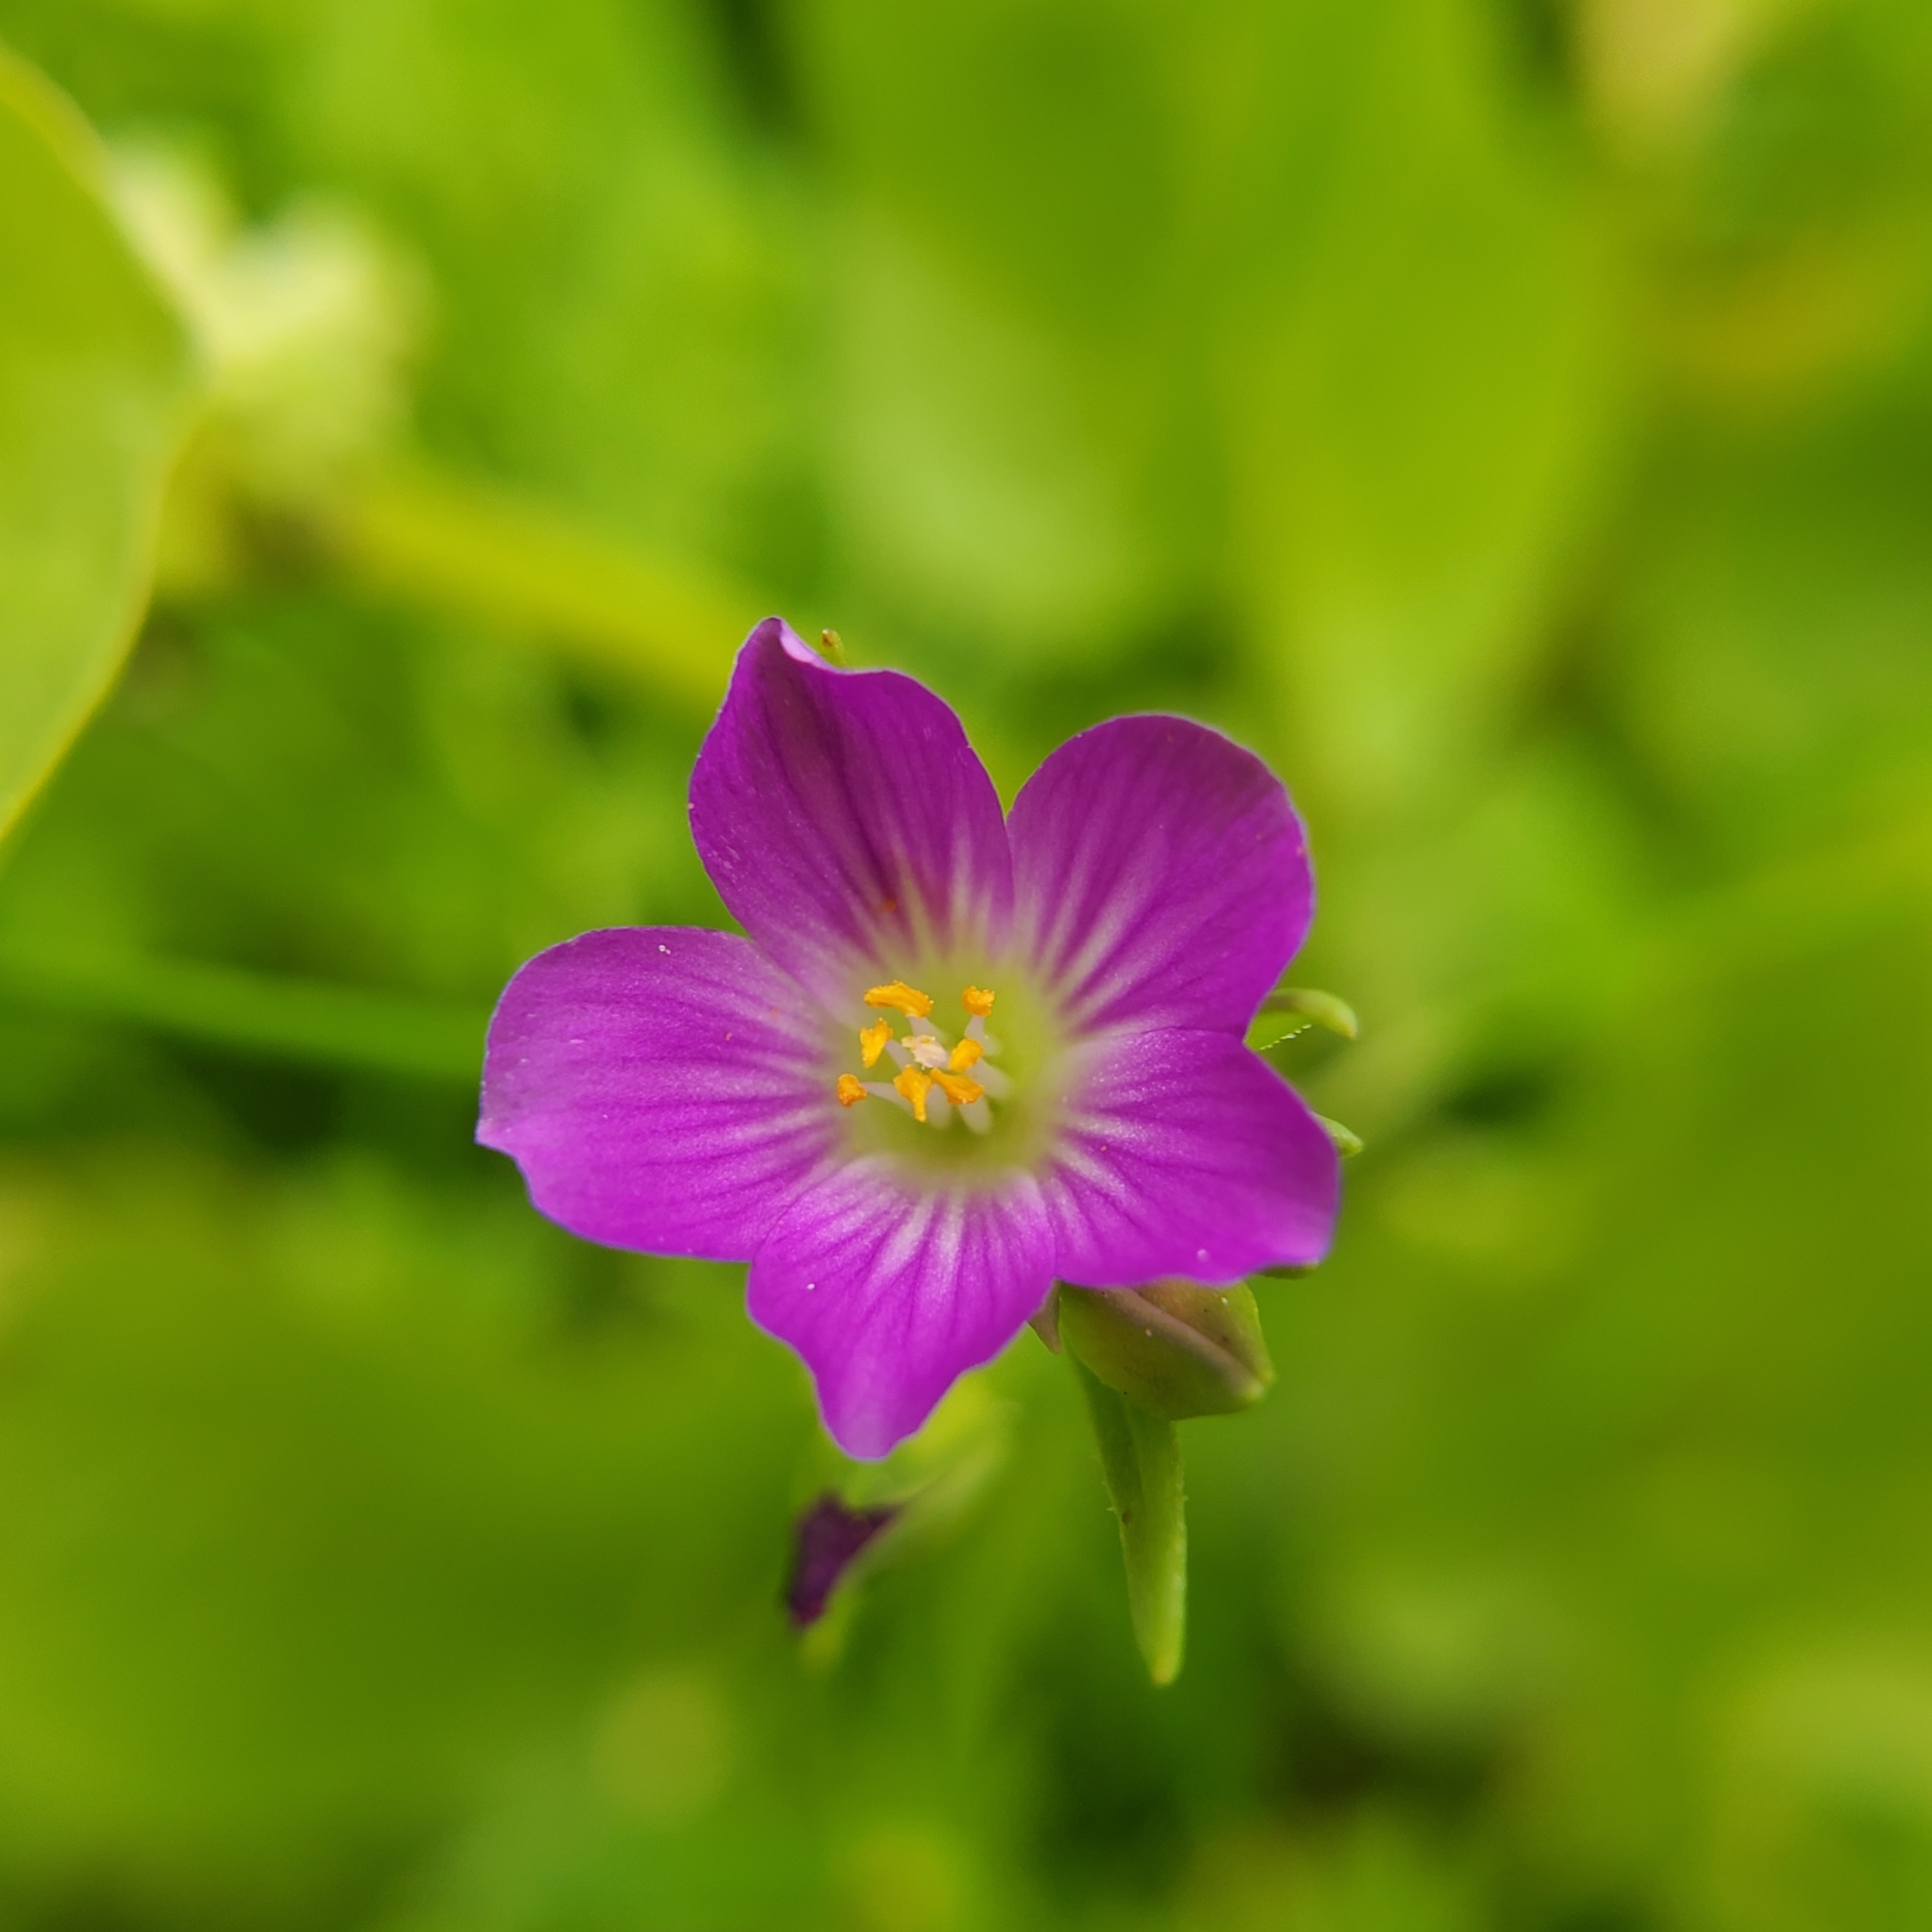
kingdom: Plantae
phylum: Tracheophyta
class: Magnoliopsida
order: Caryophyllales
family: Montiaceae
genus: Calandrinia
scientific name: Calandrinia menziesii
